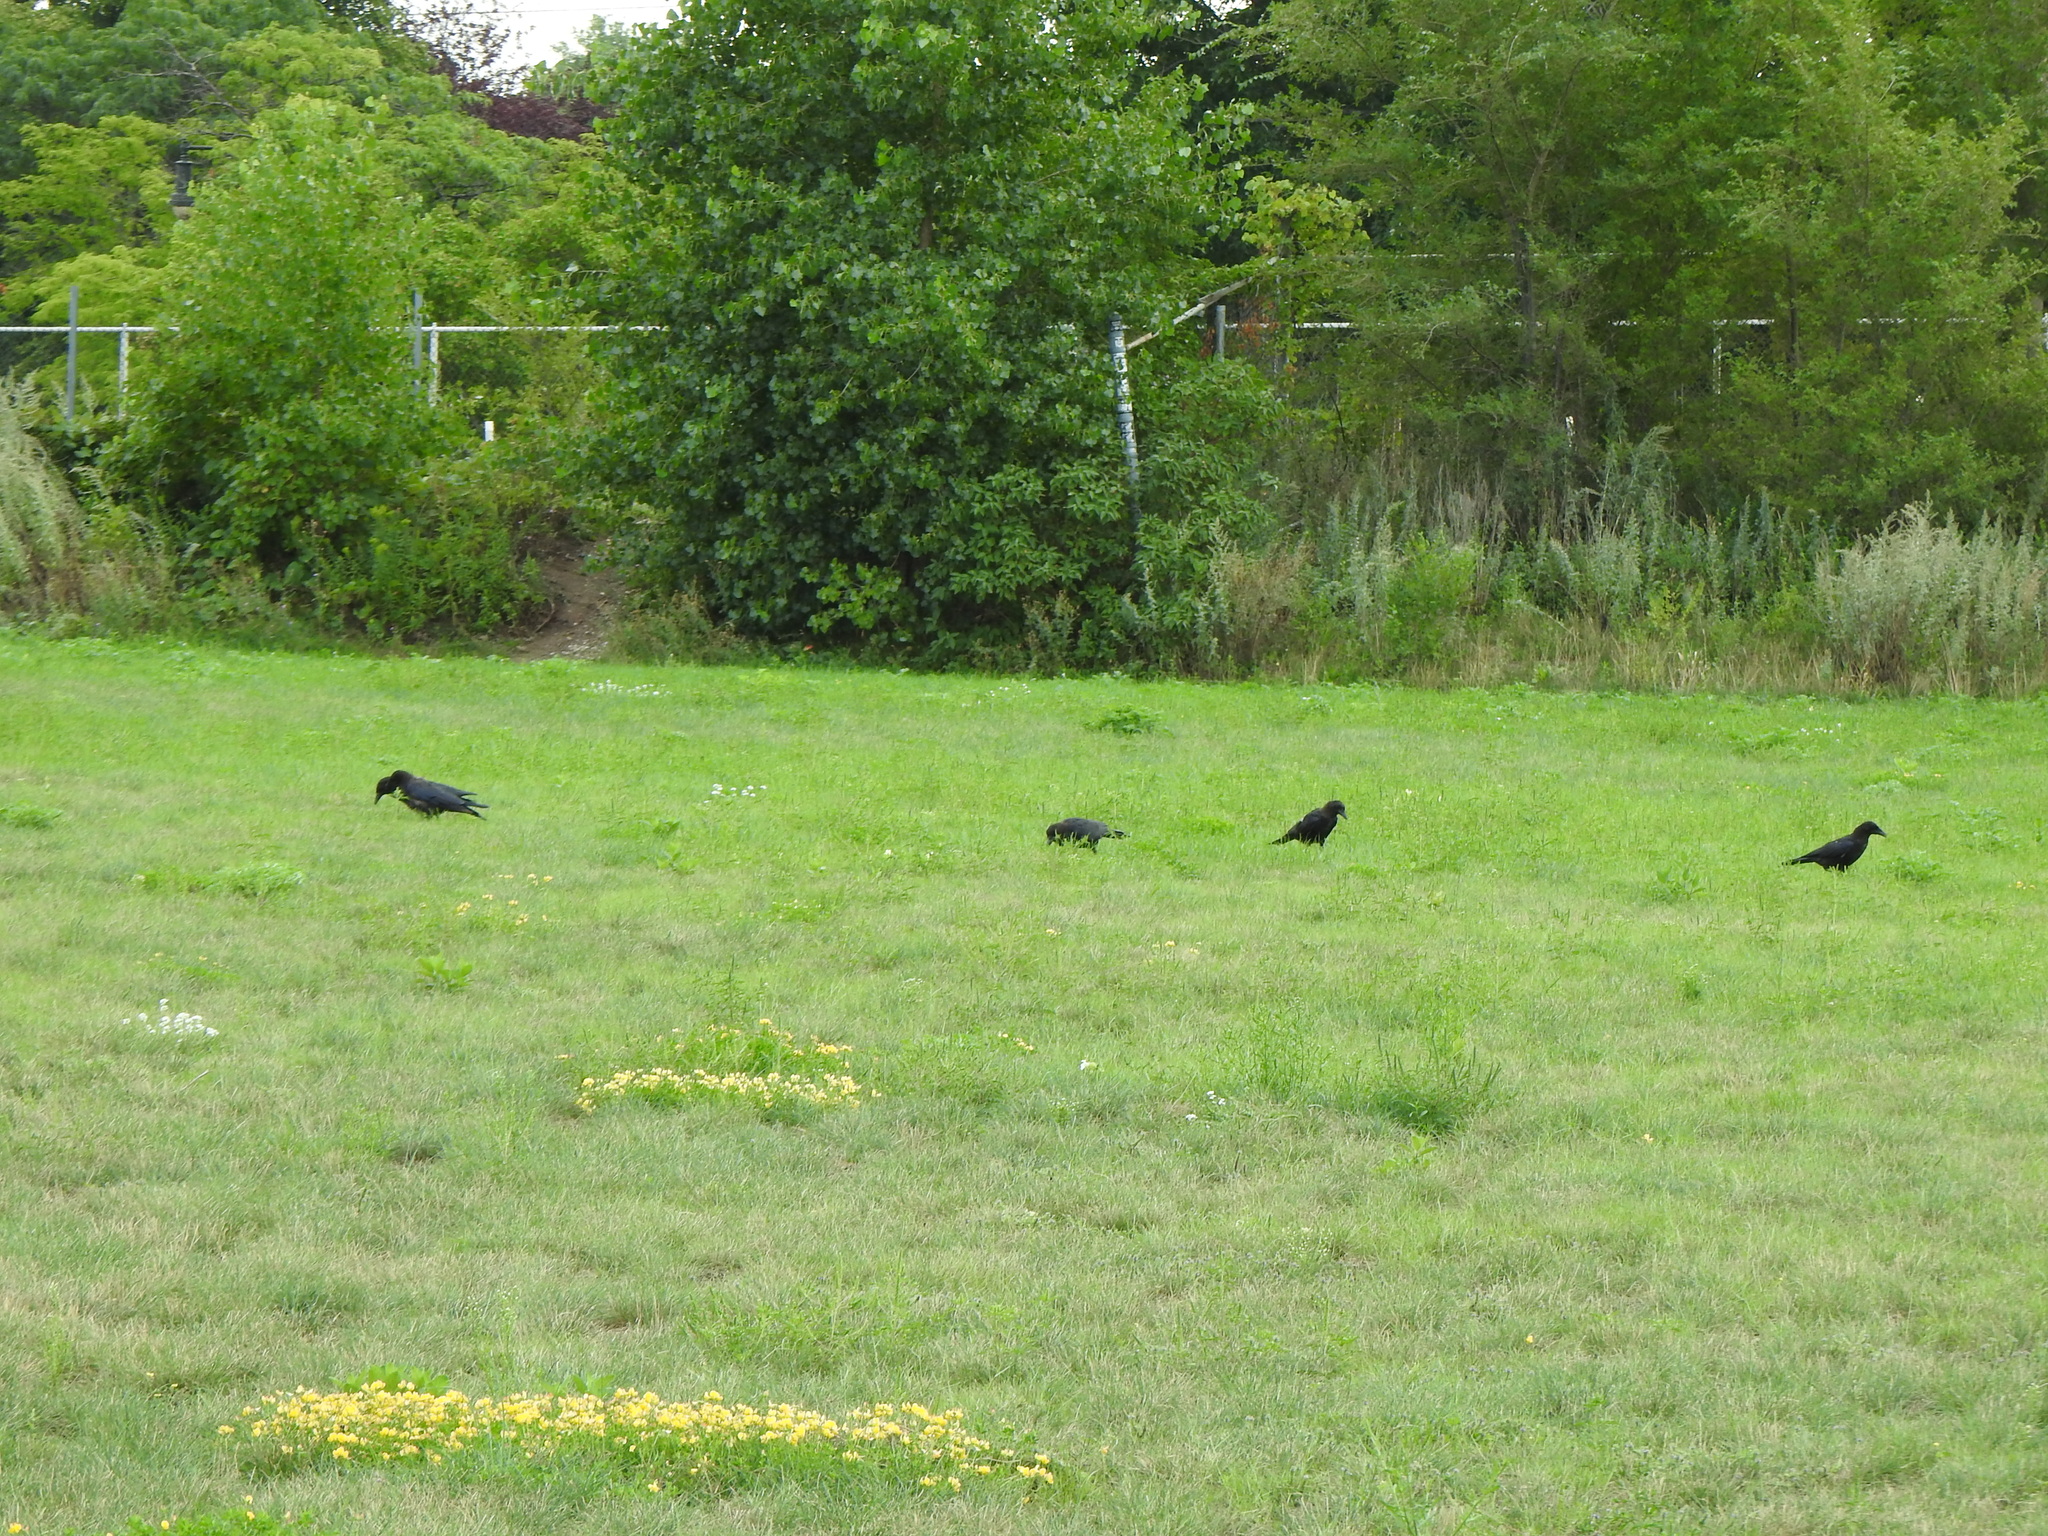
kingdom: Animalia
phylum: Chordata
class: Aves
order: Passeriformes
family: Corvidae
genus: Corvus
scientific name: Corvus brachyrhynchos
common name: American crow
